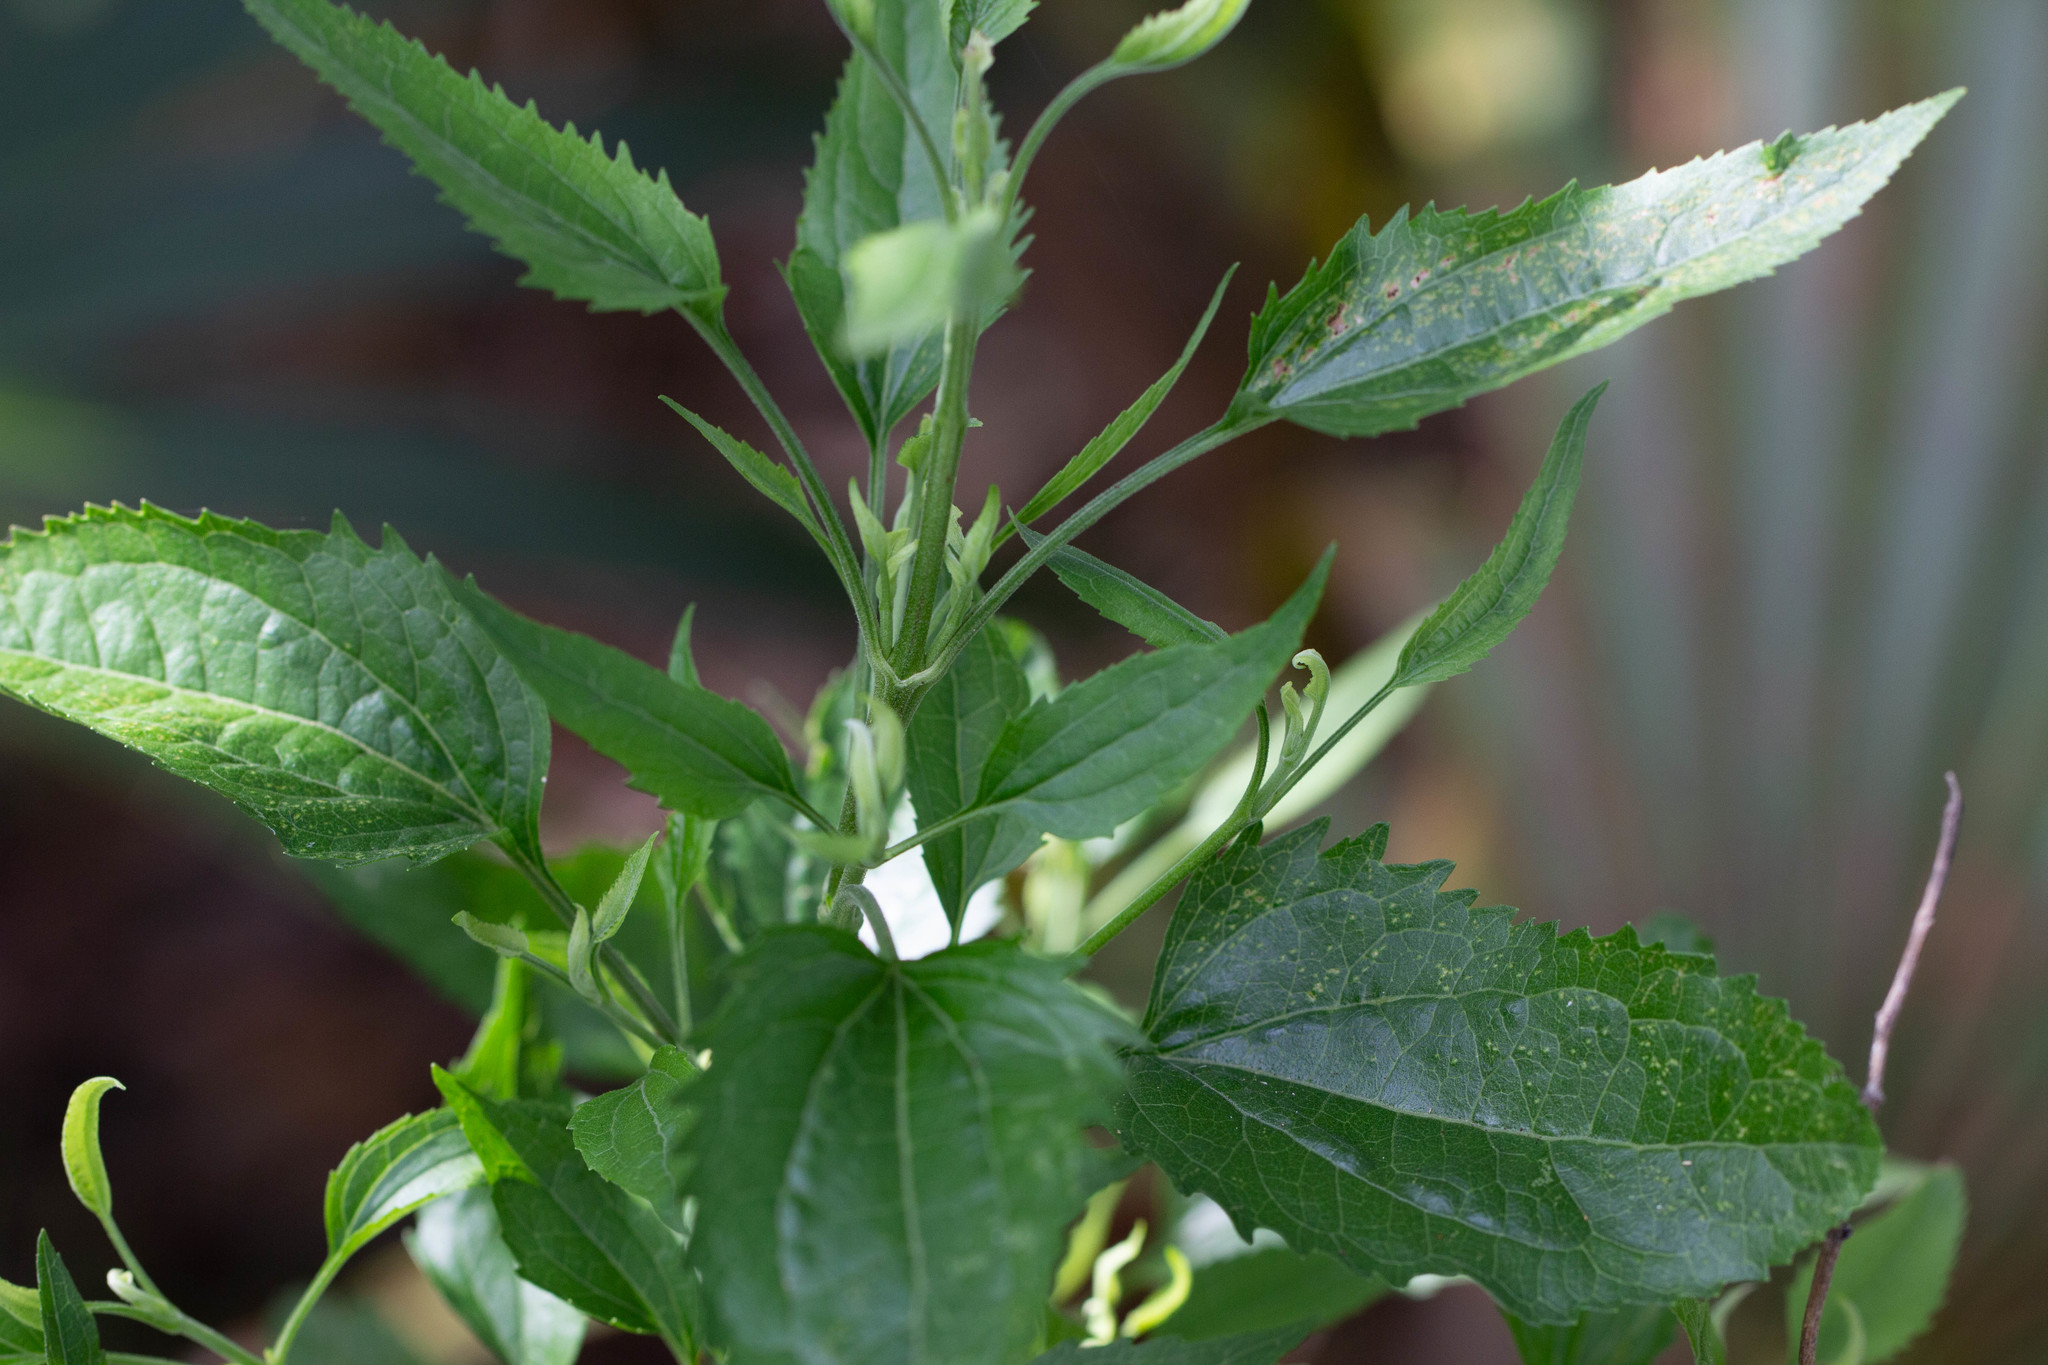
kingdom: Plantae
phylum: Tracheophyta
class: Magnoliopsida
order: Asterales
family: Asteraceae
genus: Eupatorium
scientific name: Eupatorium serotinum
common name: Late boneset
